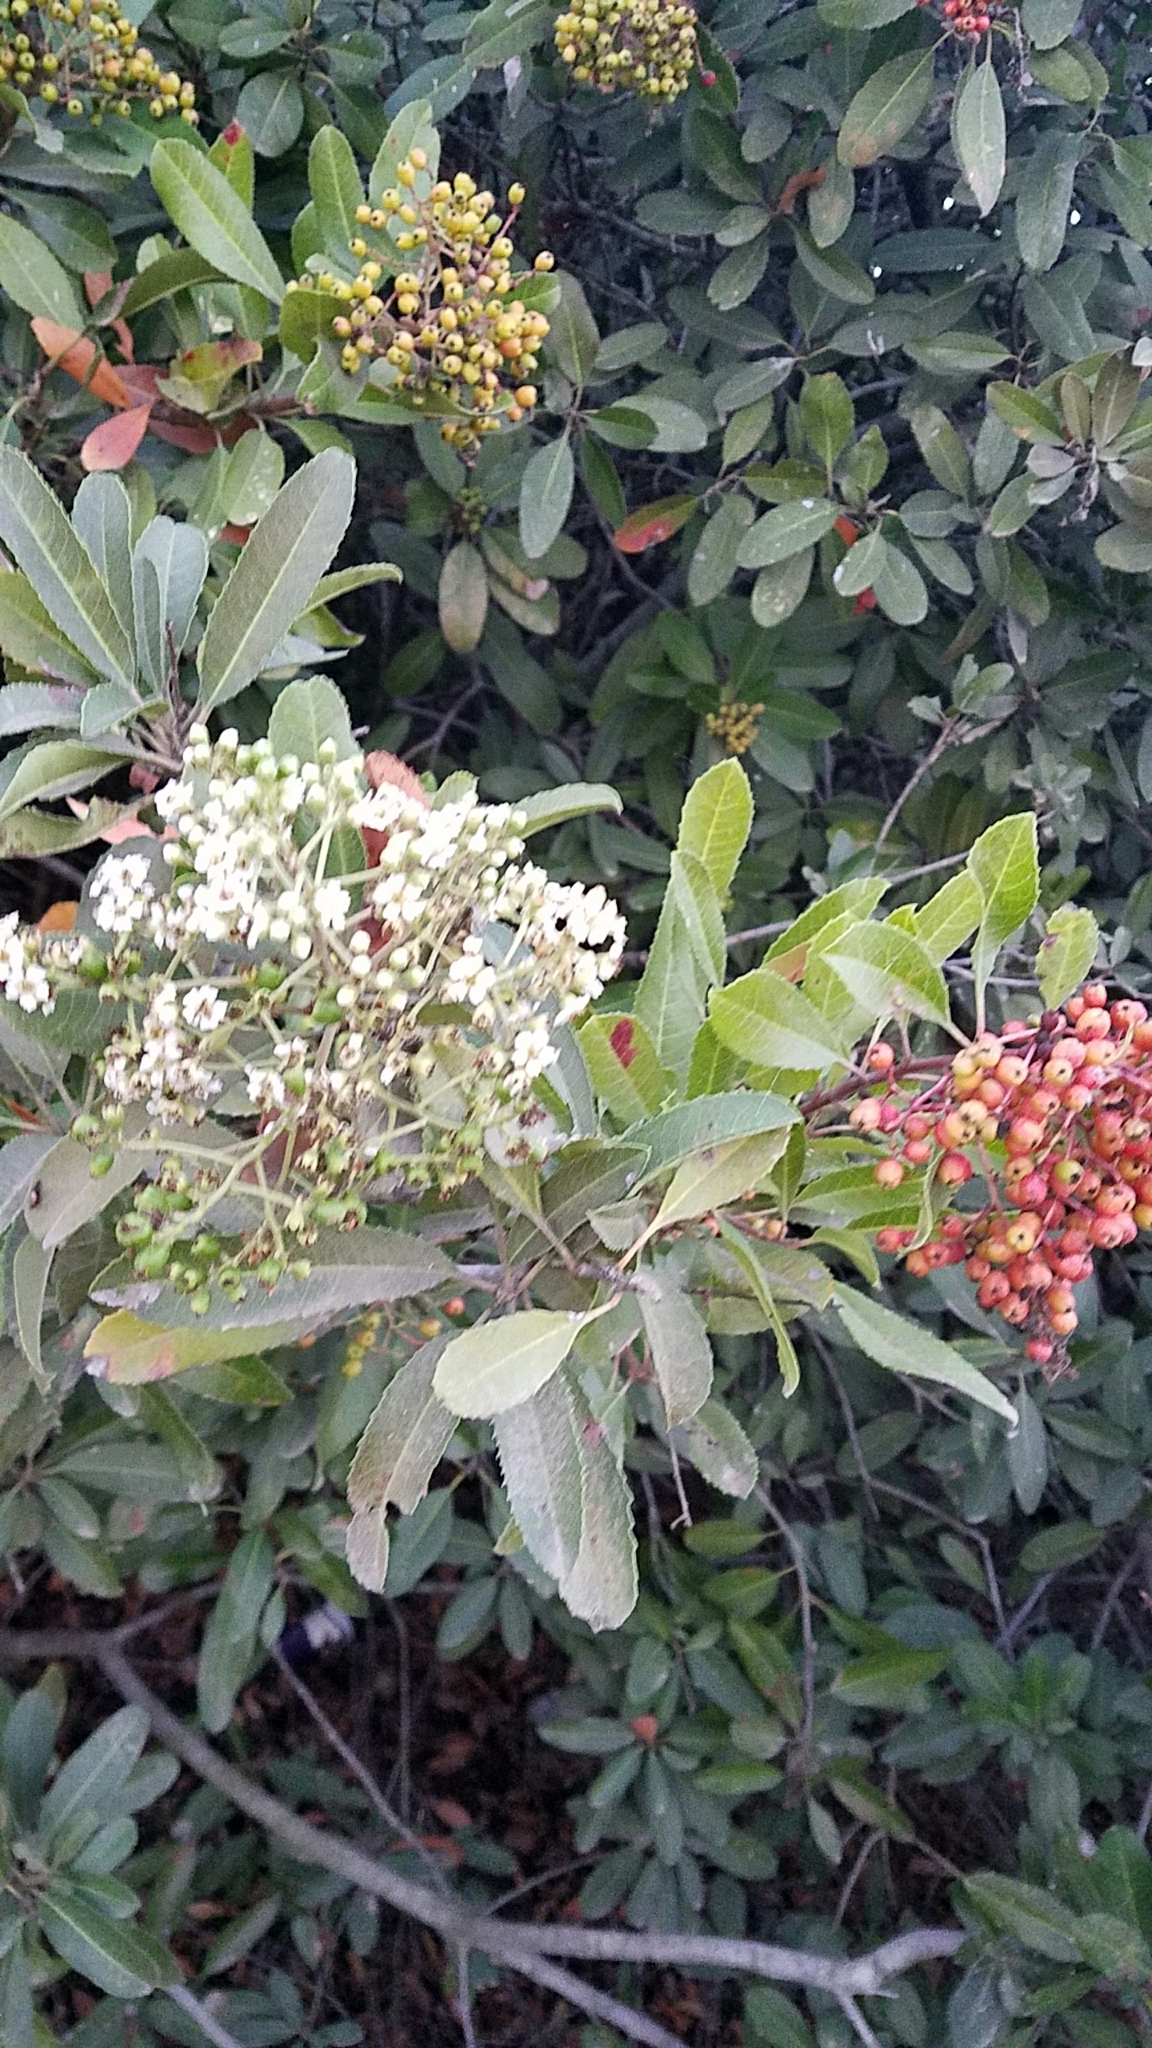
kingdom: Plantae
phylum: Tracheophyta
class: Magnoliopsida
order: Rosales
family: Rosaceae
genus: Heteromeles
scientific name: Heteromeles arbutifolia
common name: California-holly
